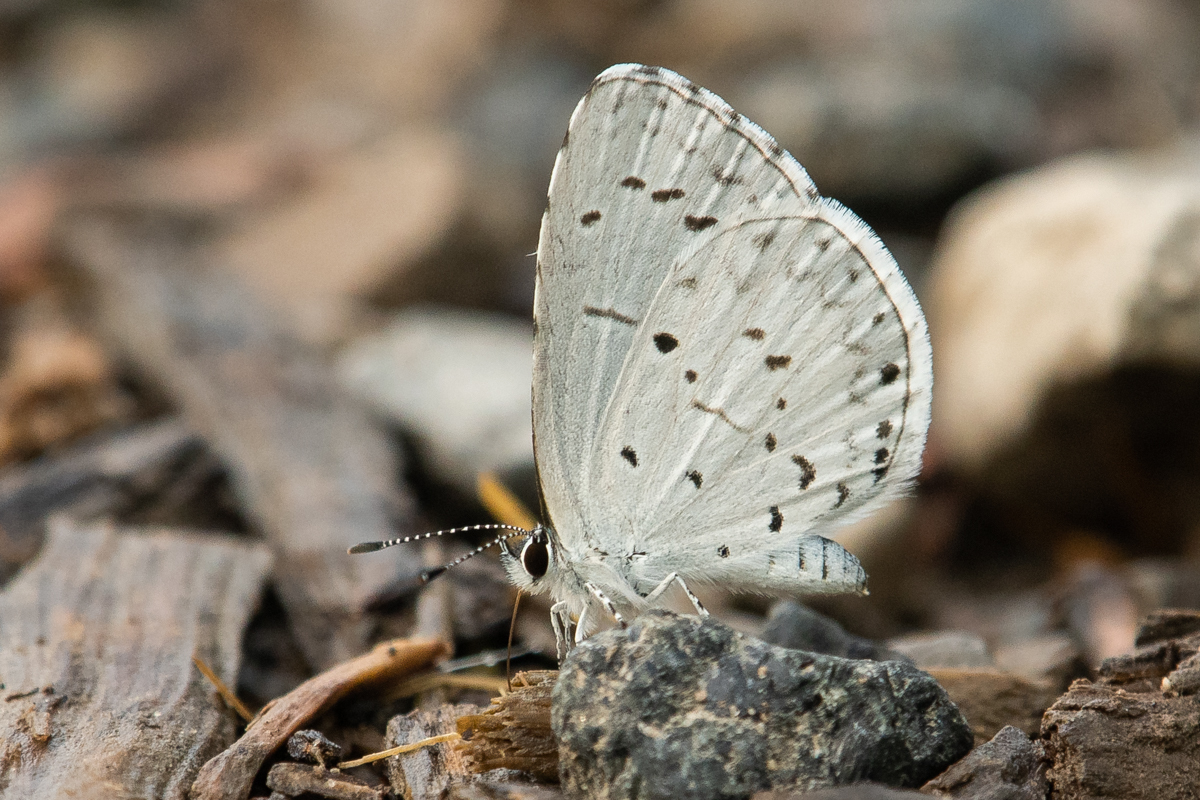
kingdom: Animalia
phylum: Arthropoda
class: Insecta
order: Lepidoptera
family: Lycaenidae
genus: Cyaniris
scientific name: Cyaniris neglecta
